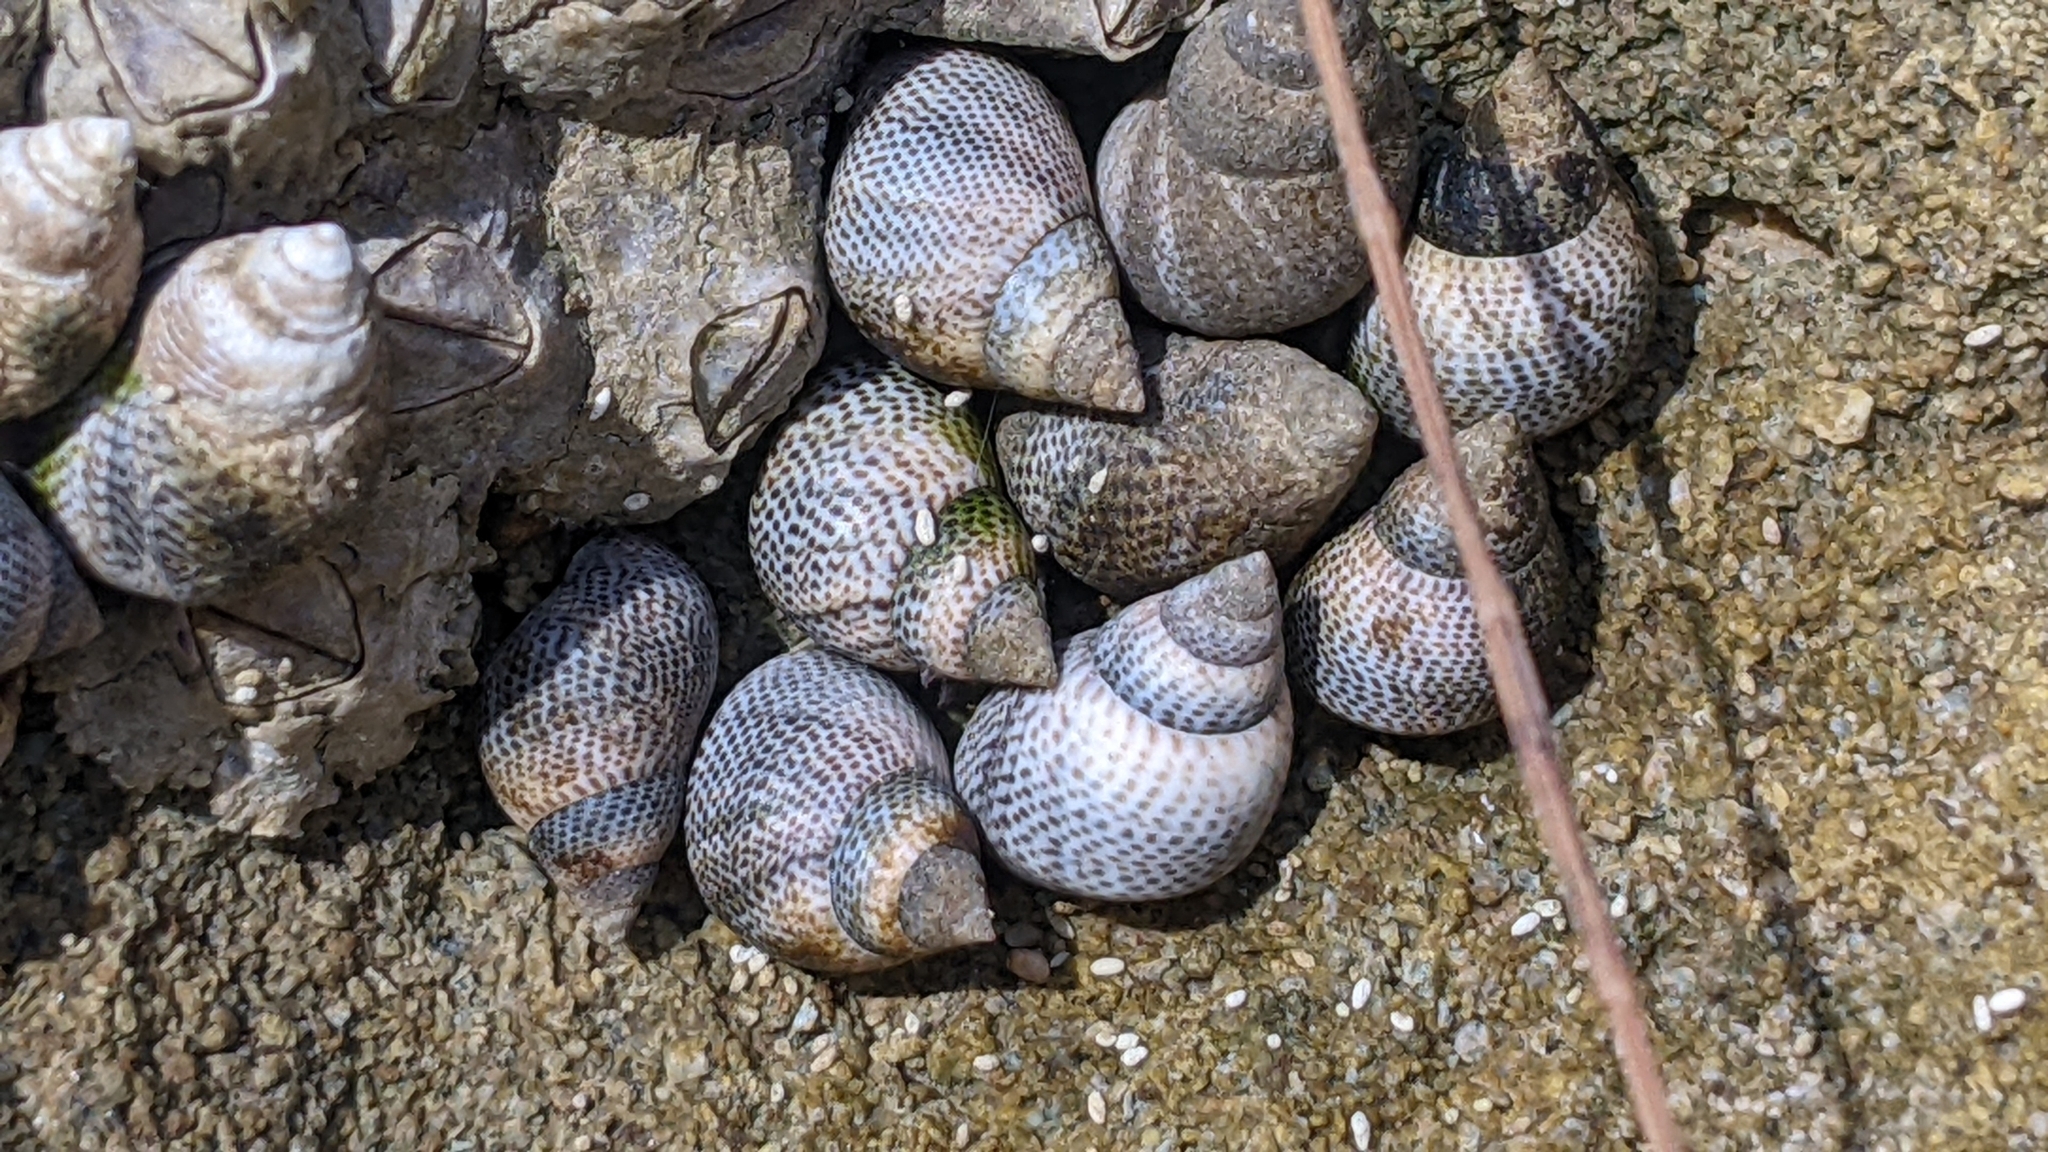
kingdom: Animalia
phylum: Mollusca
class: Gastropoda
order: Littorinimorpha
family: Littorinidae
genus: Littoraria
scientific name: Littoraria pintado
